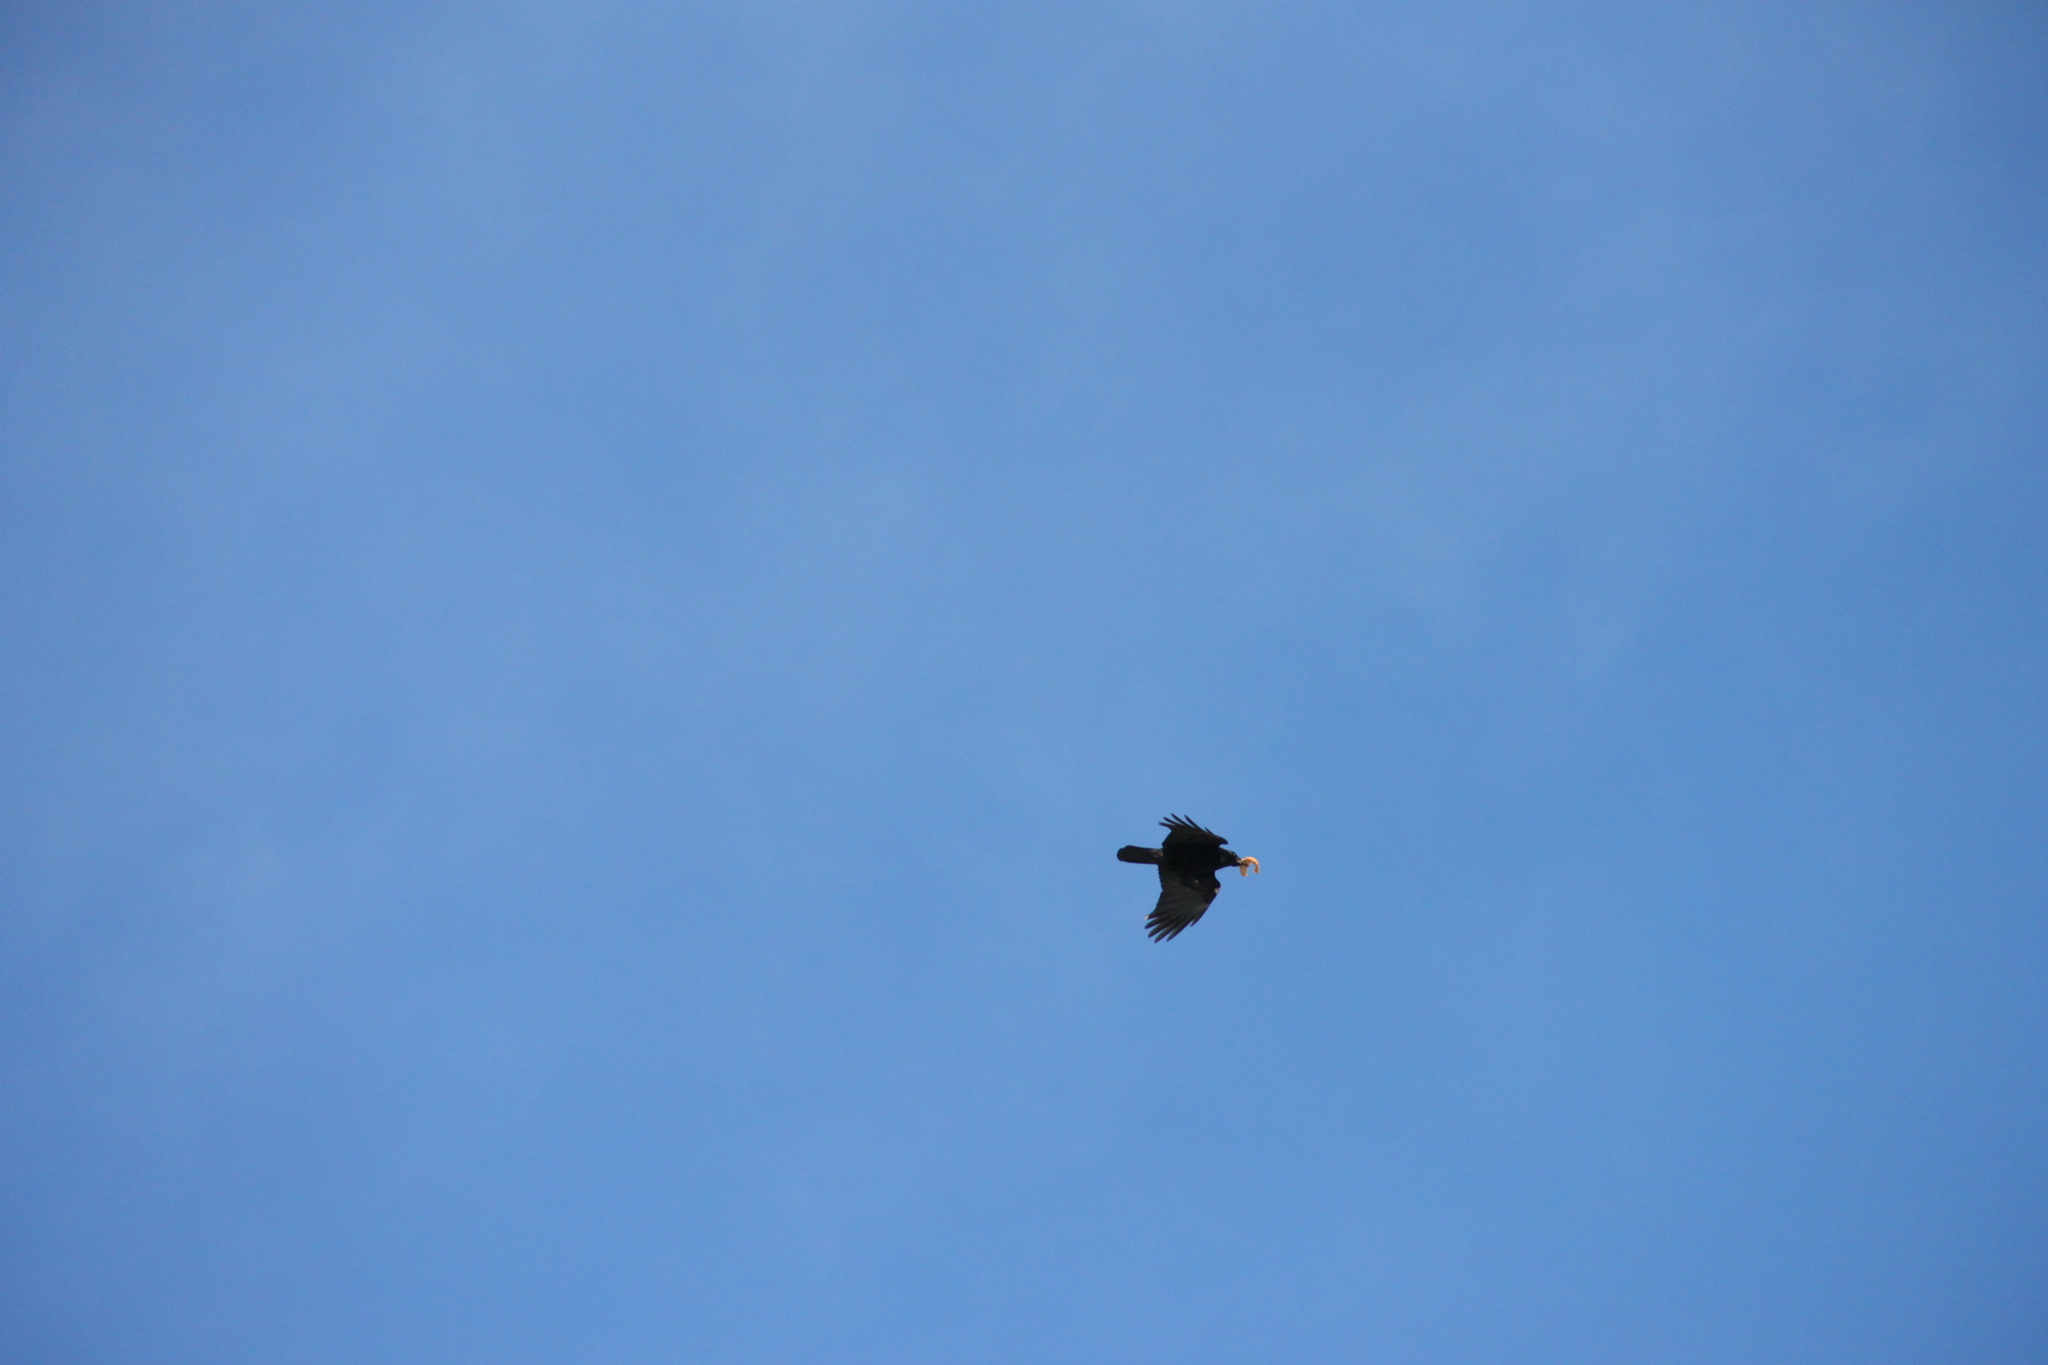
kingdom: Animalia
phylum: Chordata
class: Aves
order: Passeriformes
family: Corvidae
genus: Corvus
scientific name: Corvus frugilegus
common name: Rook
